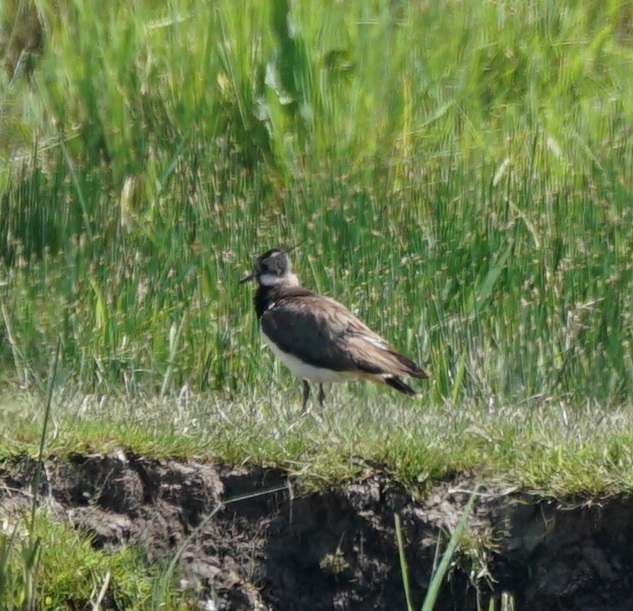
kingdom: Animalia
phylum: Chordata
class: Aves
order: Charadriiformes
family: Charadriidae
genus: Vanellus
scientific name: Vanellus vanellus
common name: Northern lapwing
